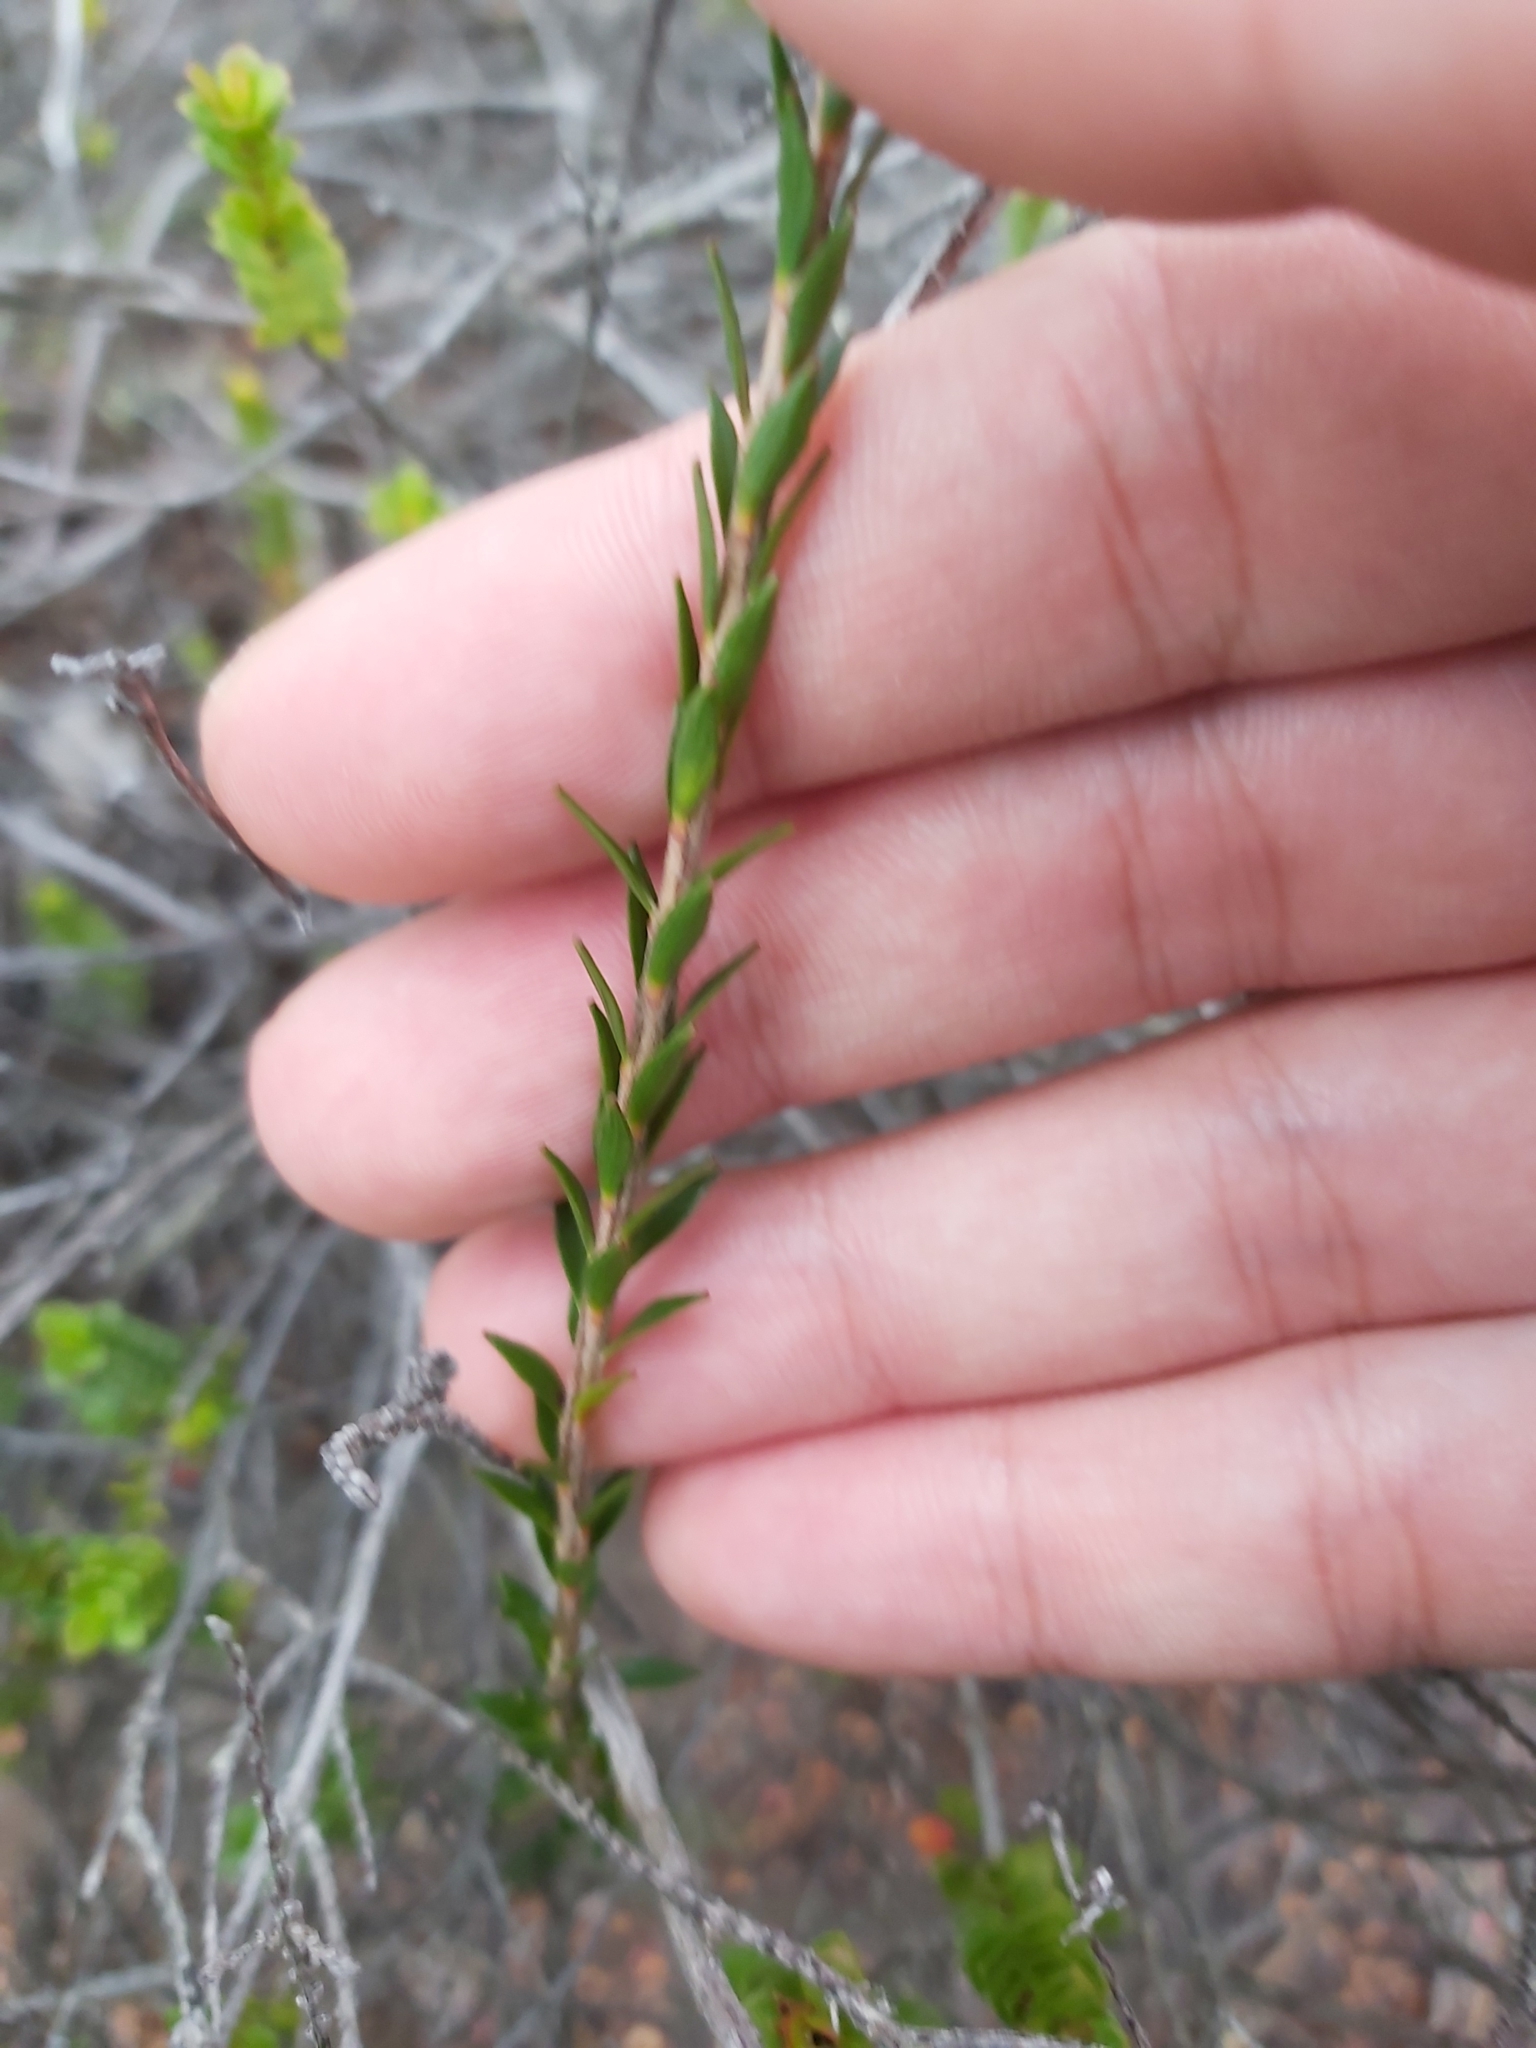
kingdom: Plantae
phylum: Tracheophyta
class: Magnoliopsida
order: Ericales
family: Ericaceae
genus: Epacris
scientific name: Epacris obtusifolia
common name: Blunt-leaf australian-heath
